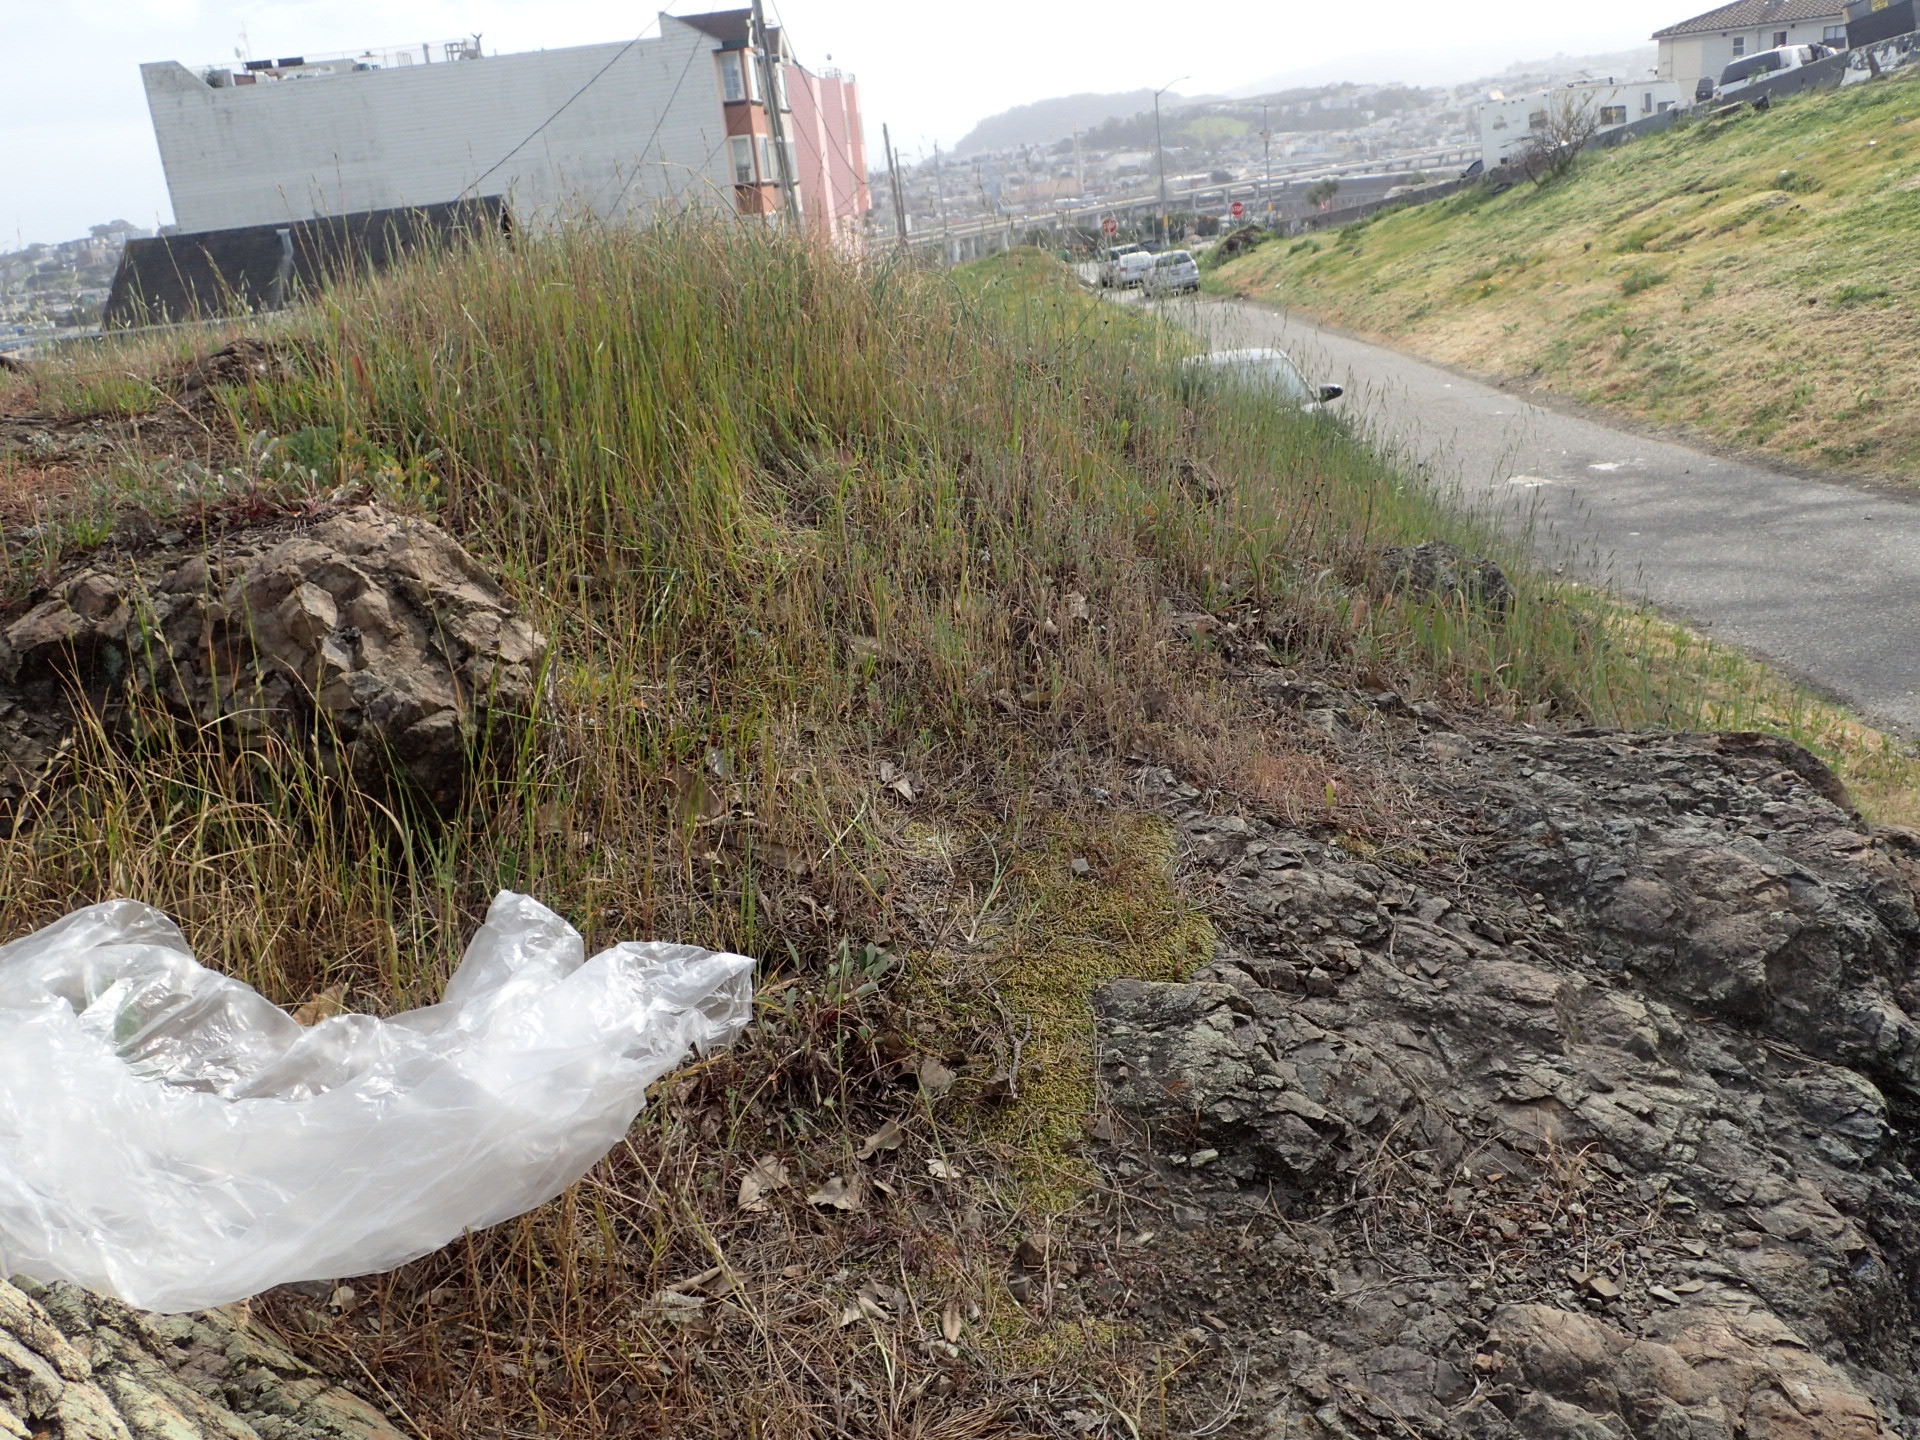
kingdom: Plantae
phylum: Tracheophyta
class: Magnoliopsida
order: Ericales
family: Polemoniaceae
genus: Gilia
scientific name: Gilia clivorum
